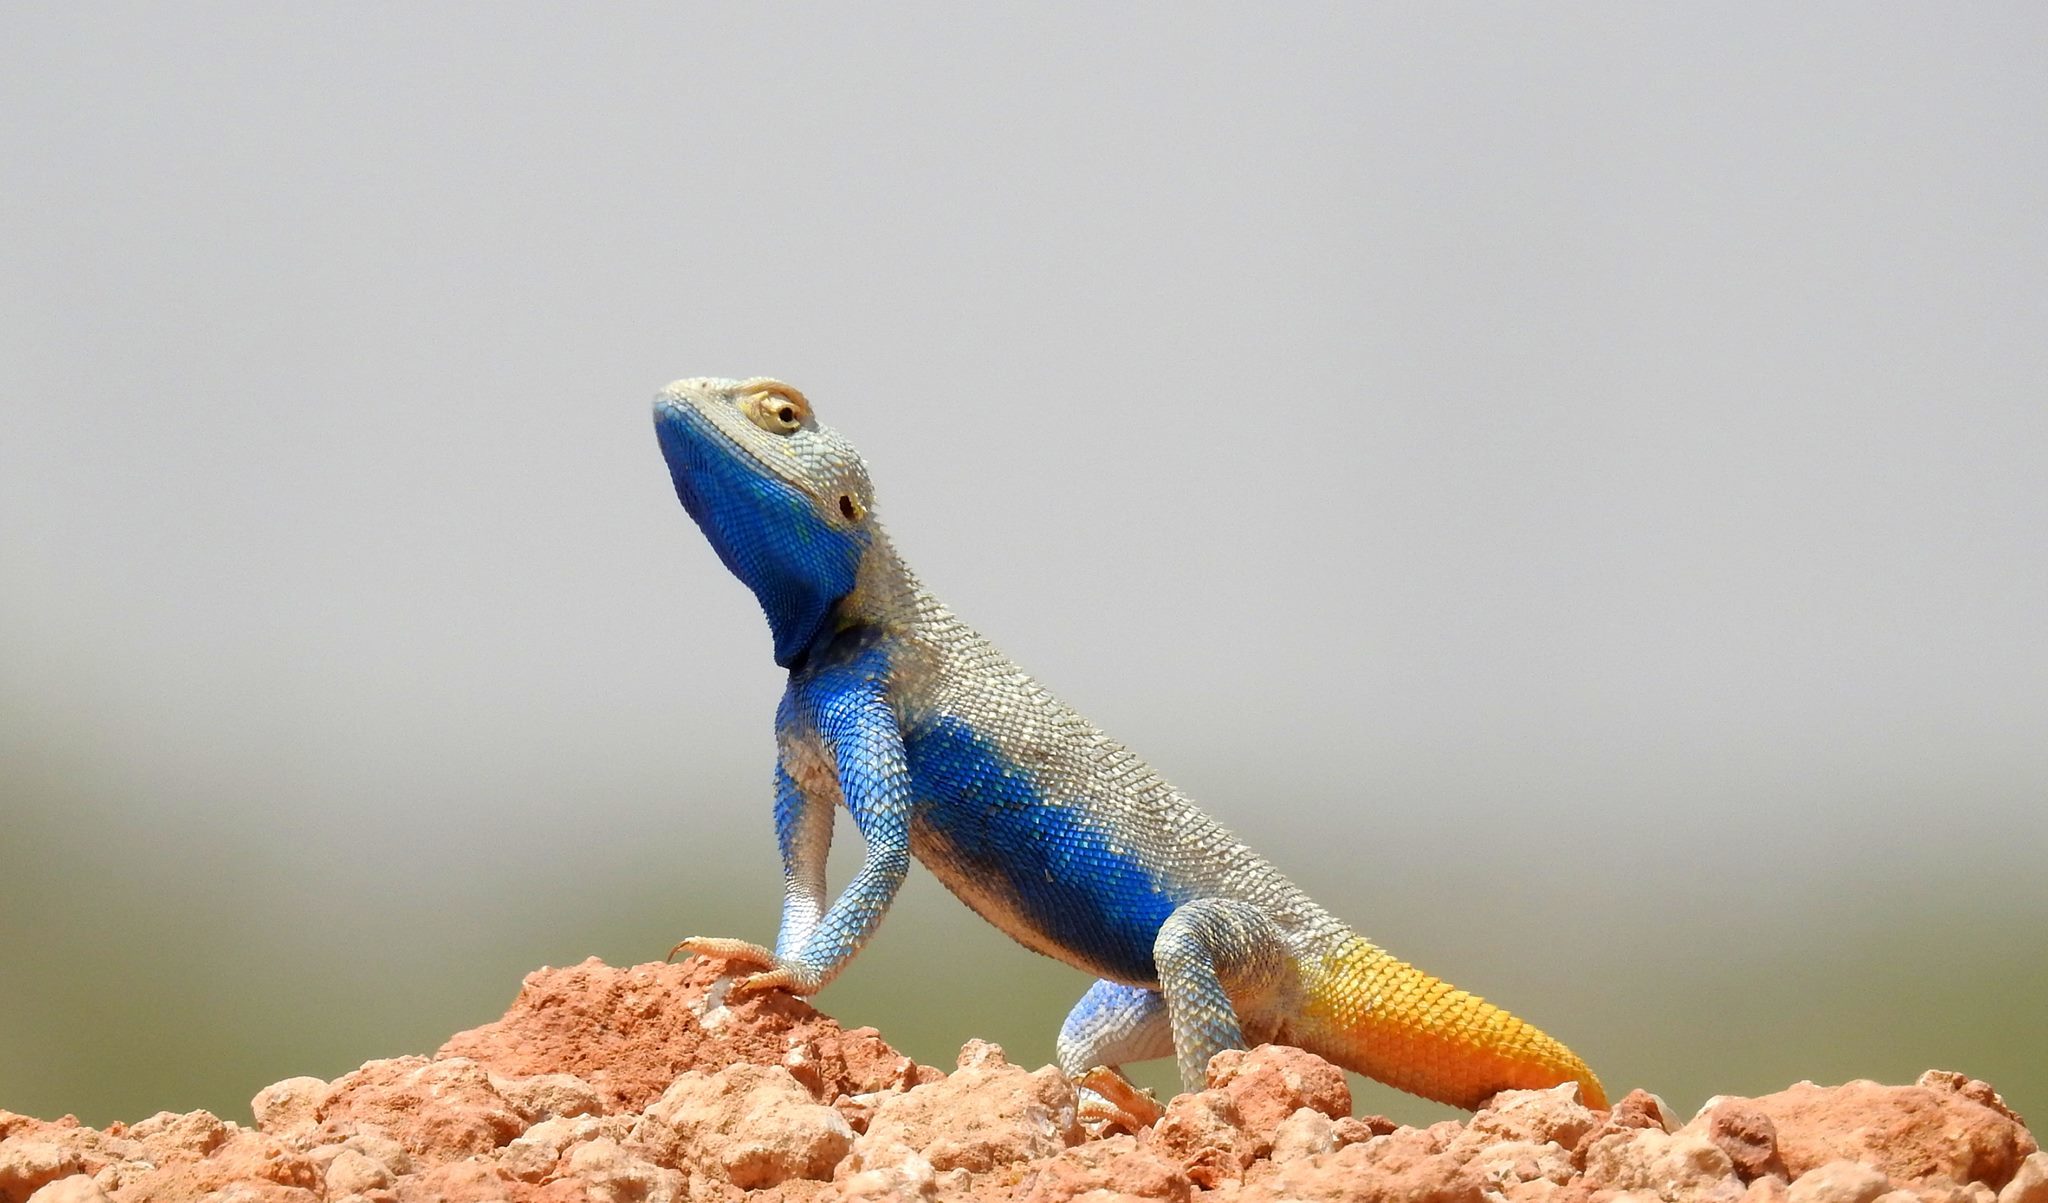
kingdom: Animalia
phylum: Chordata
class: Squamata
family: Agamidae
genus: Trapelus
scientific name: Trapelus agilis
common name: Brilliant ground agama
